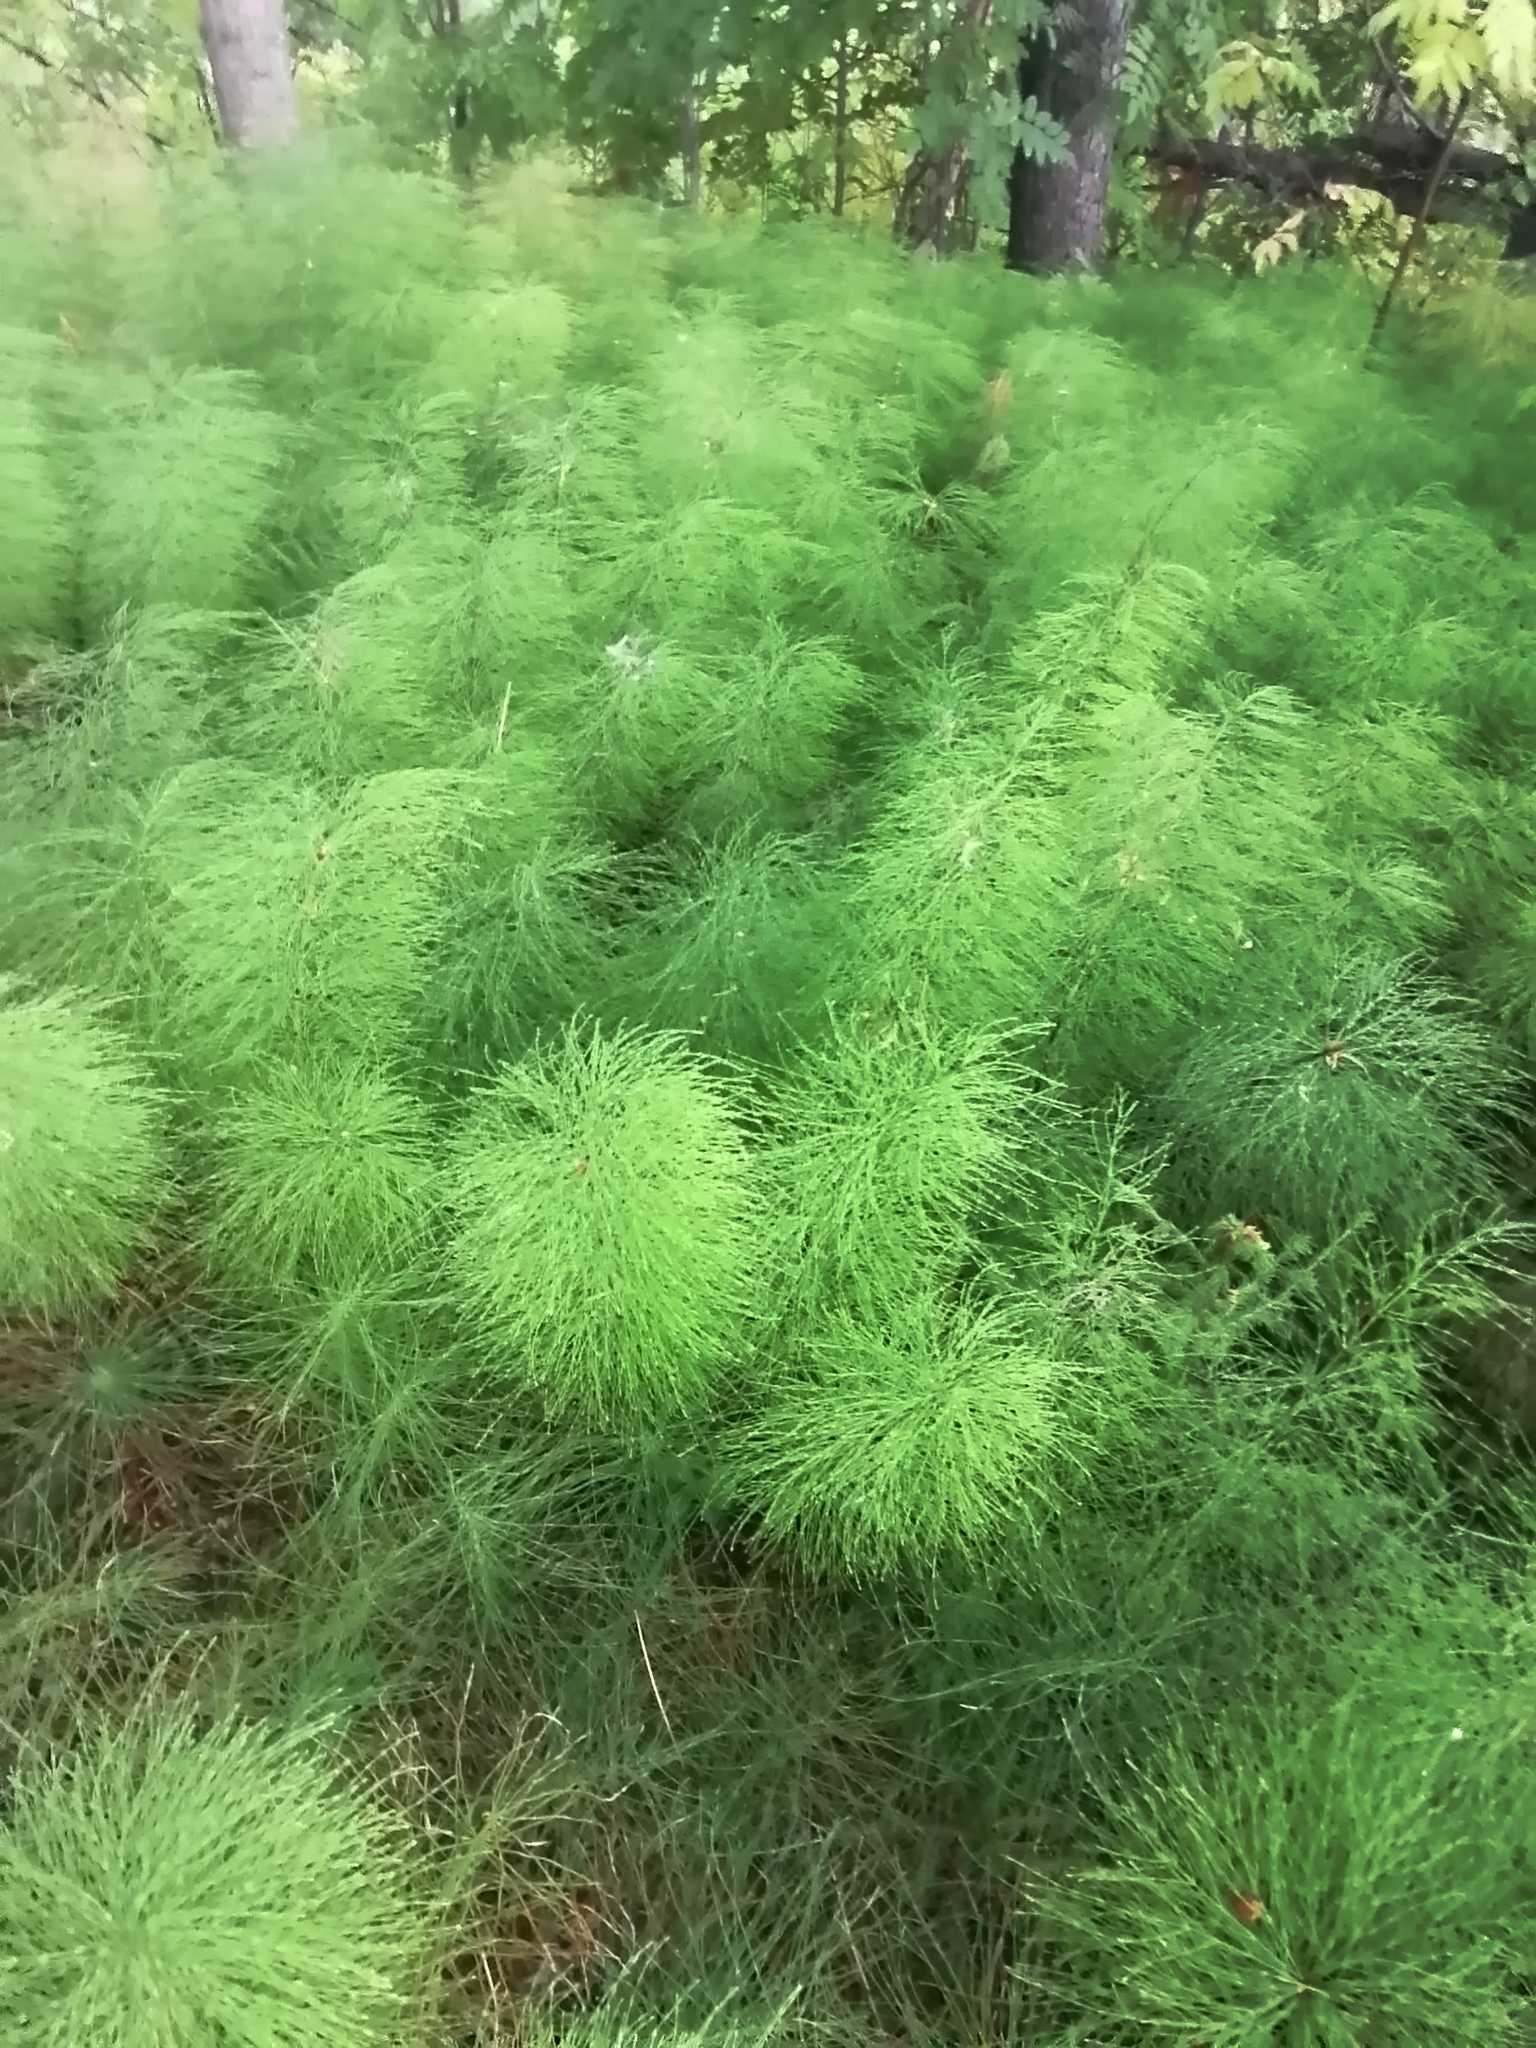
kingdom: Plantae
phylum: Tracheophyta
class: Polypodiopsida
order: Equisetales
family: Equisetaceae
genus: Equisetum
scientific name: Equisetum sylvaticum
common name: Wood horsetail
